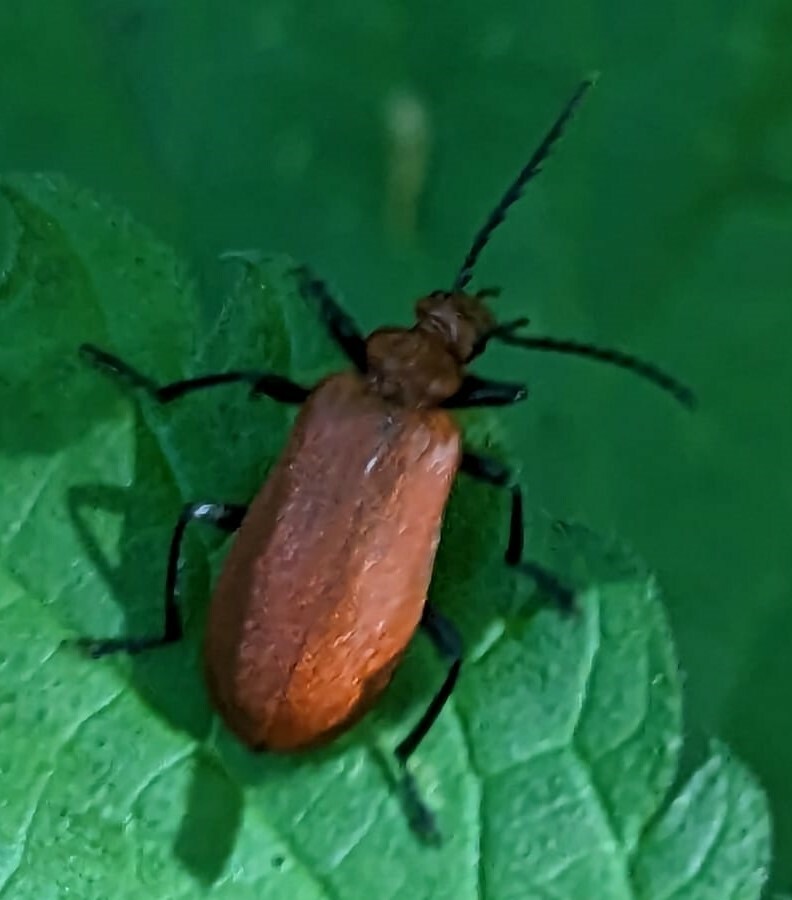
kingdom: Animalia
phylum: Arthropoda
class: Insecta
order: Coleoptera
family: Pyrochroidae
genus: Pyrochroa
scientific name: Pyrochroa serraticornis
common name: Red-headed cardinal beetle
